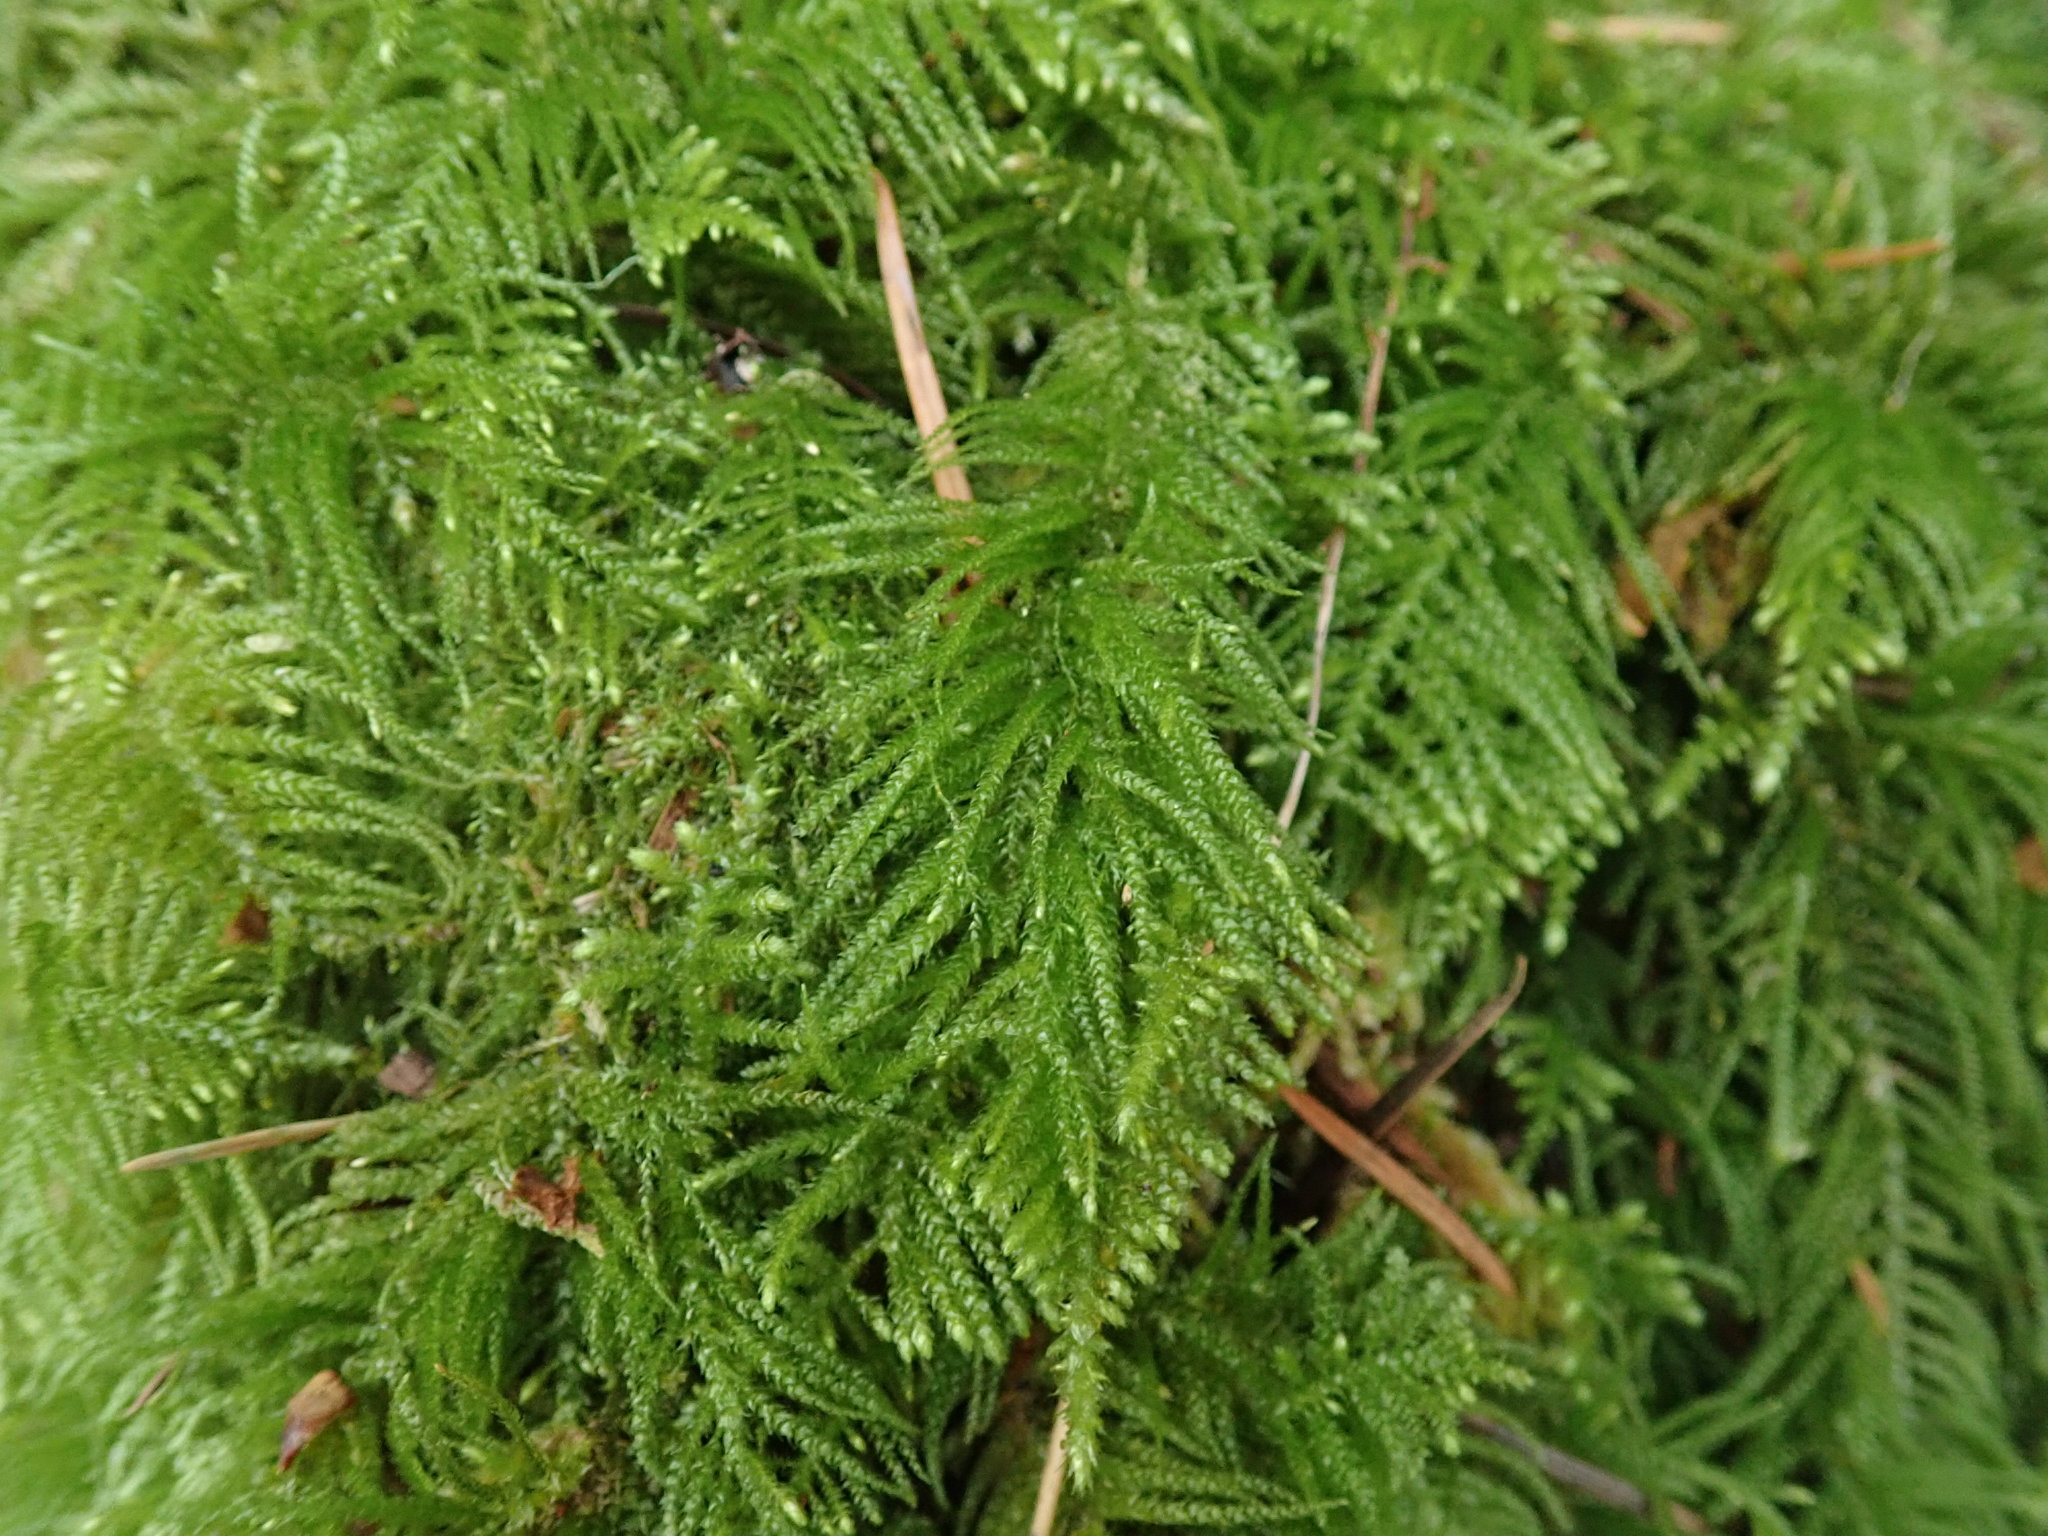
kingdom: Plantae
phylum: Bryophyta
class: Bryopsida
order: Hypnales
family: Brachytheciaceae
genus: Kindbergia
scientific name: Kindbergia oregana
